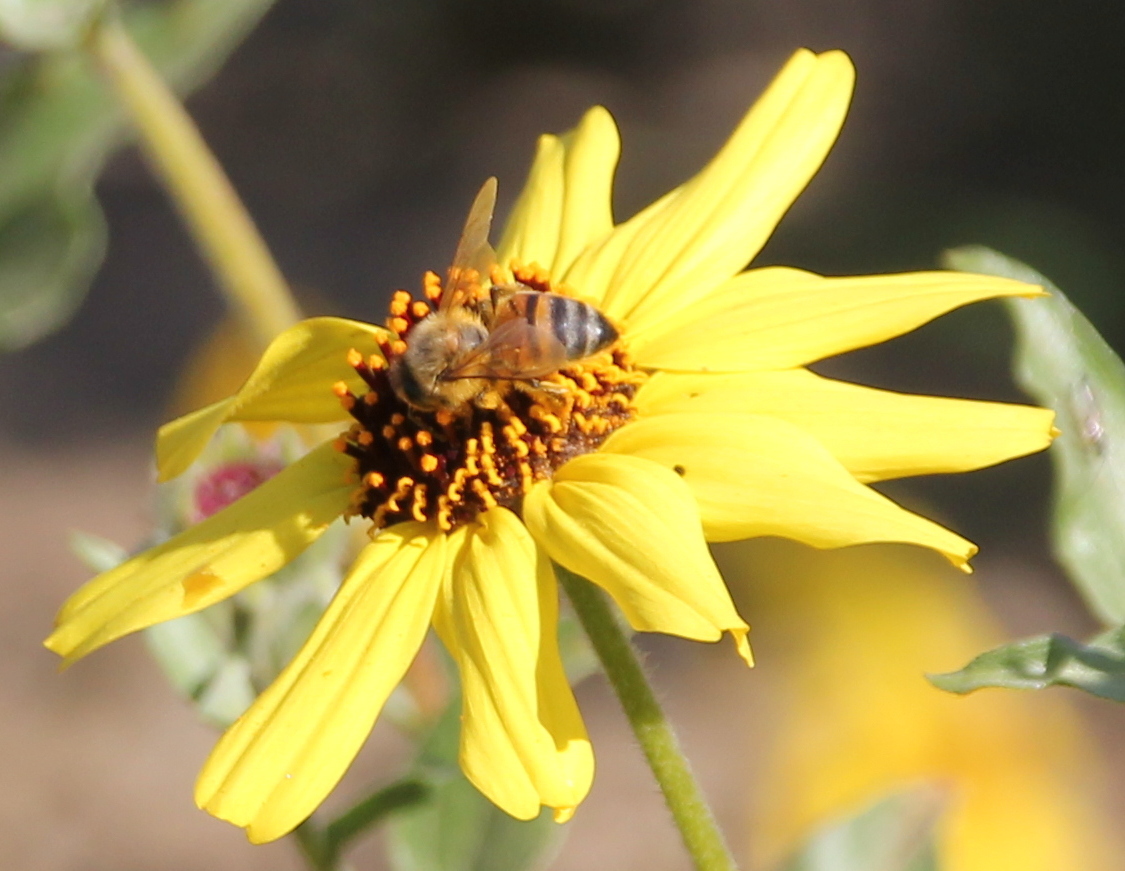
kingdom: Animalia
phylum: Arthropoda
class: Insecta
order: Hymenoptera
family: Apidae
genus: Apis
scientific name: Apis mellifera
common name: Honey bee
